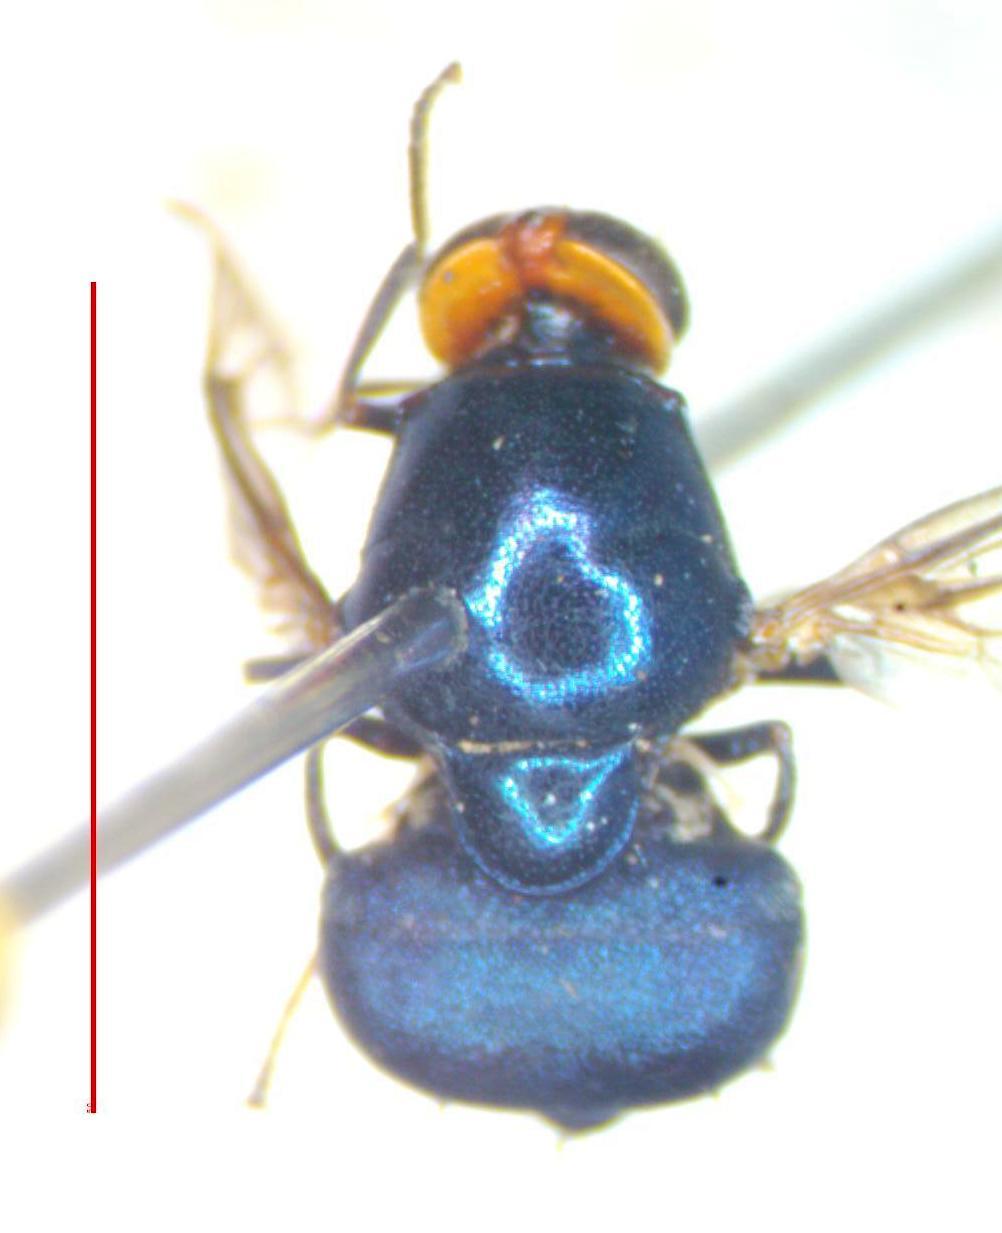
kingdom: Animalia
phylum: Arthropoda
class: Insecta
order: Diptera
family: Stratiomyidae
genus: Panacris
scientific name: Panacris microdonta
